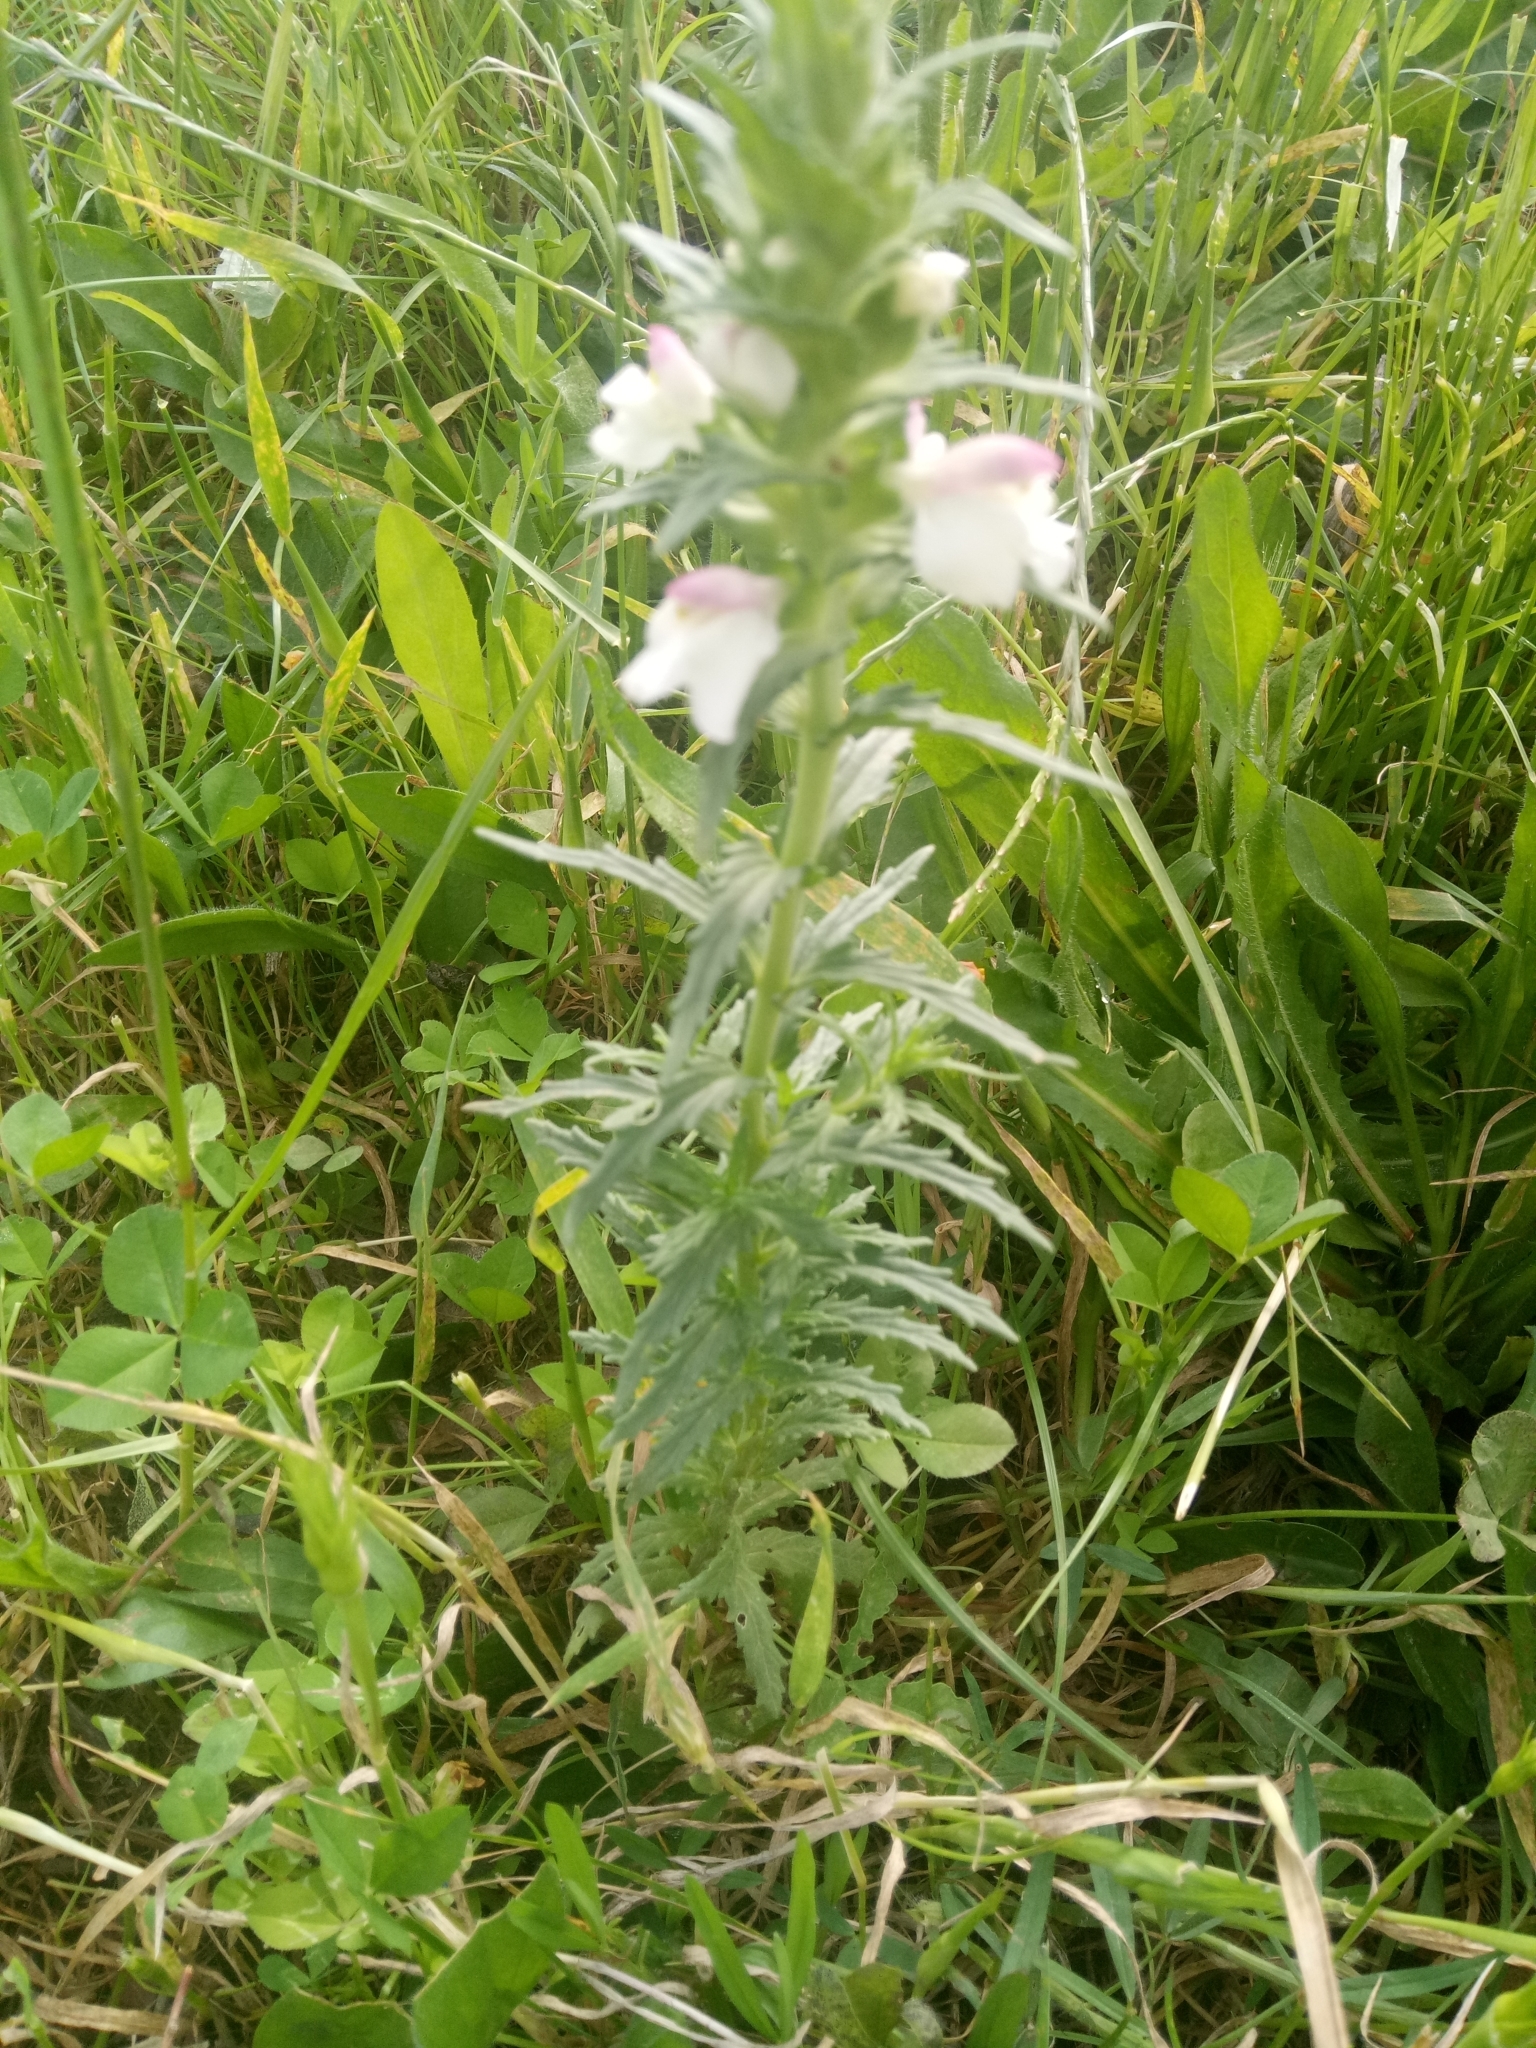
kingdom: Plantae
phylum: Tracheophyta
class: Magnoliopsida
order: Lamiales
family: Orobanchaceae
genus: Bellardia
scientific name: Bellardia trixago
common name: Mediterranean lineseed
